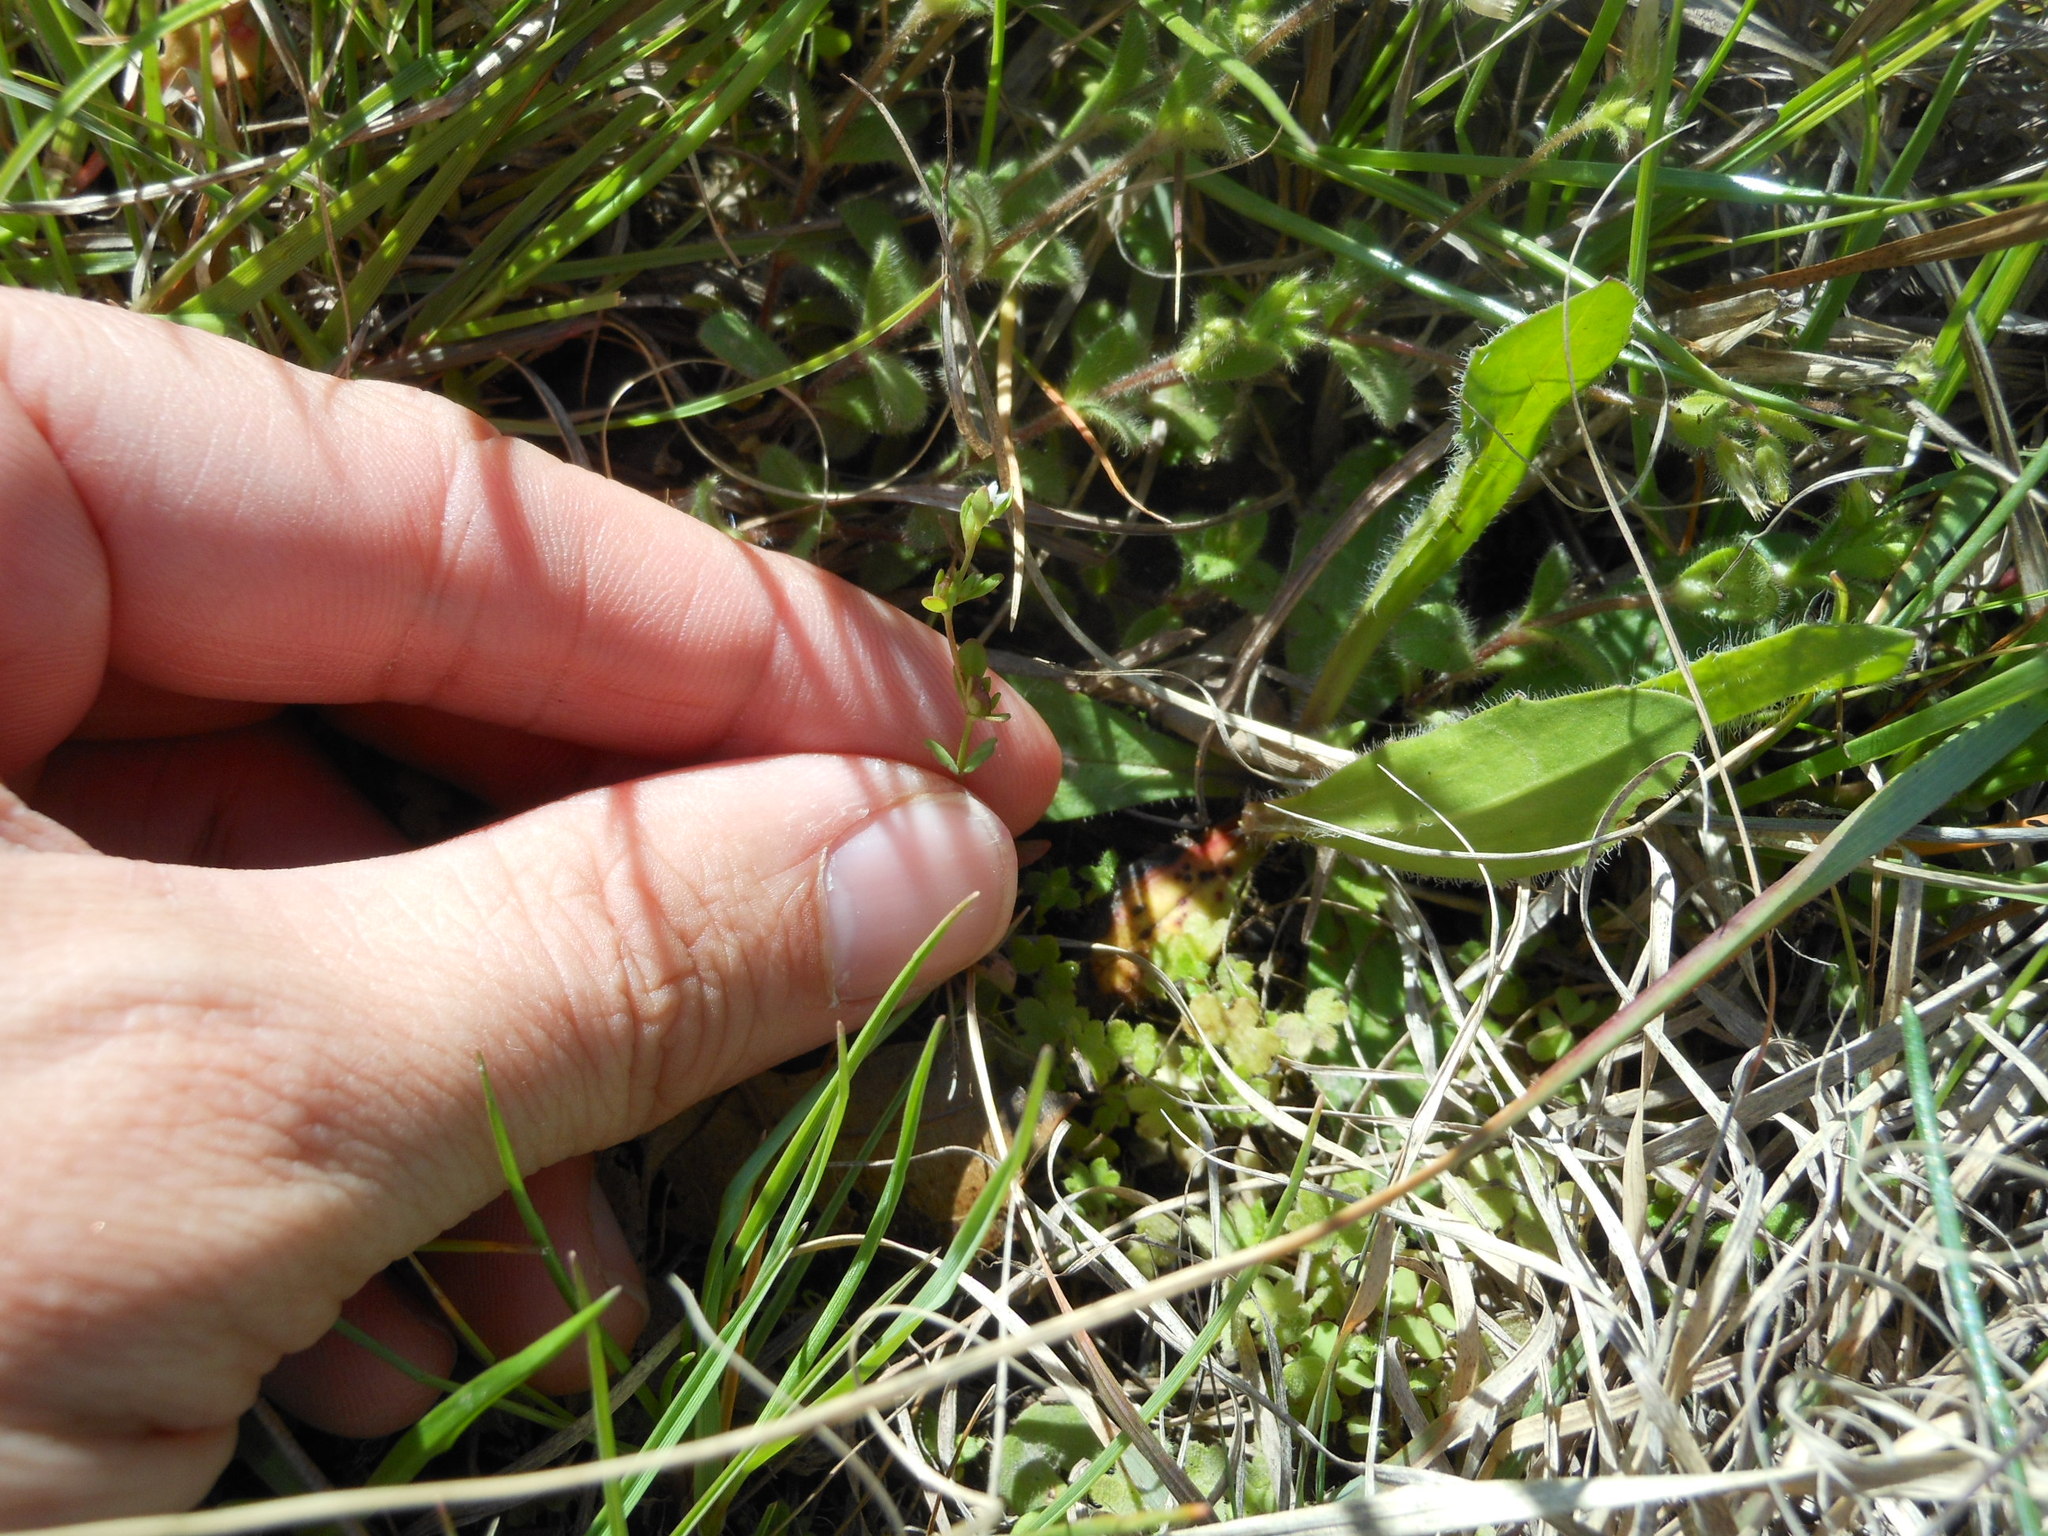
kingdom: Plantae
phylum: Tracheophyta
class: Magnoliopsida
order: Lamiales
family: Plantaginaceae
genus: Veronica
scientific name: Veronica peregrina
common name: Neckweed
